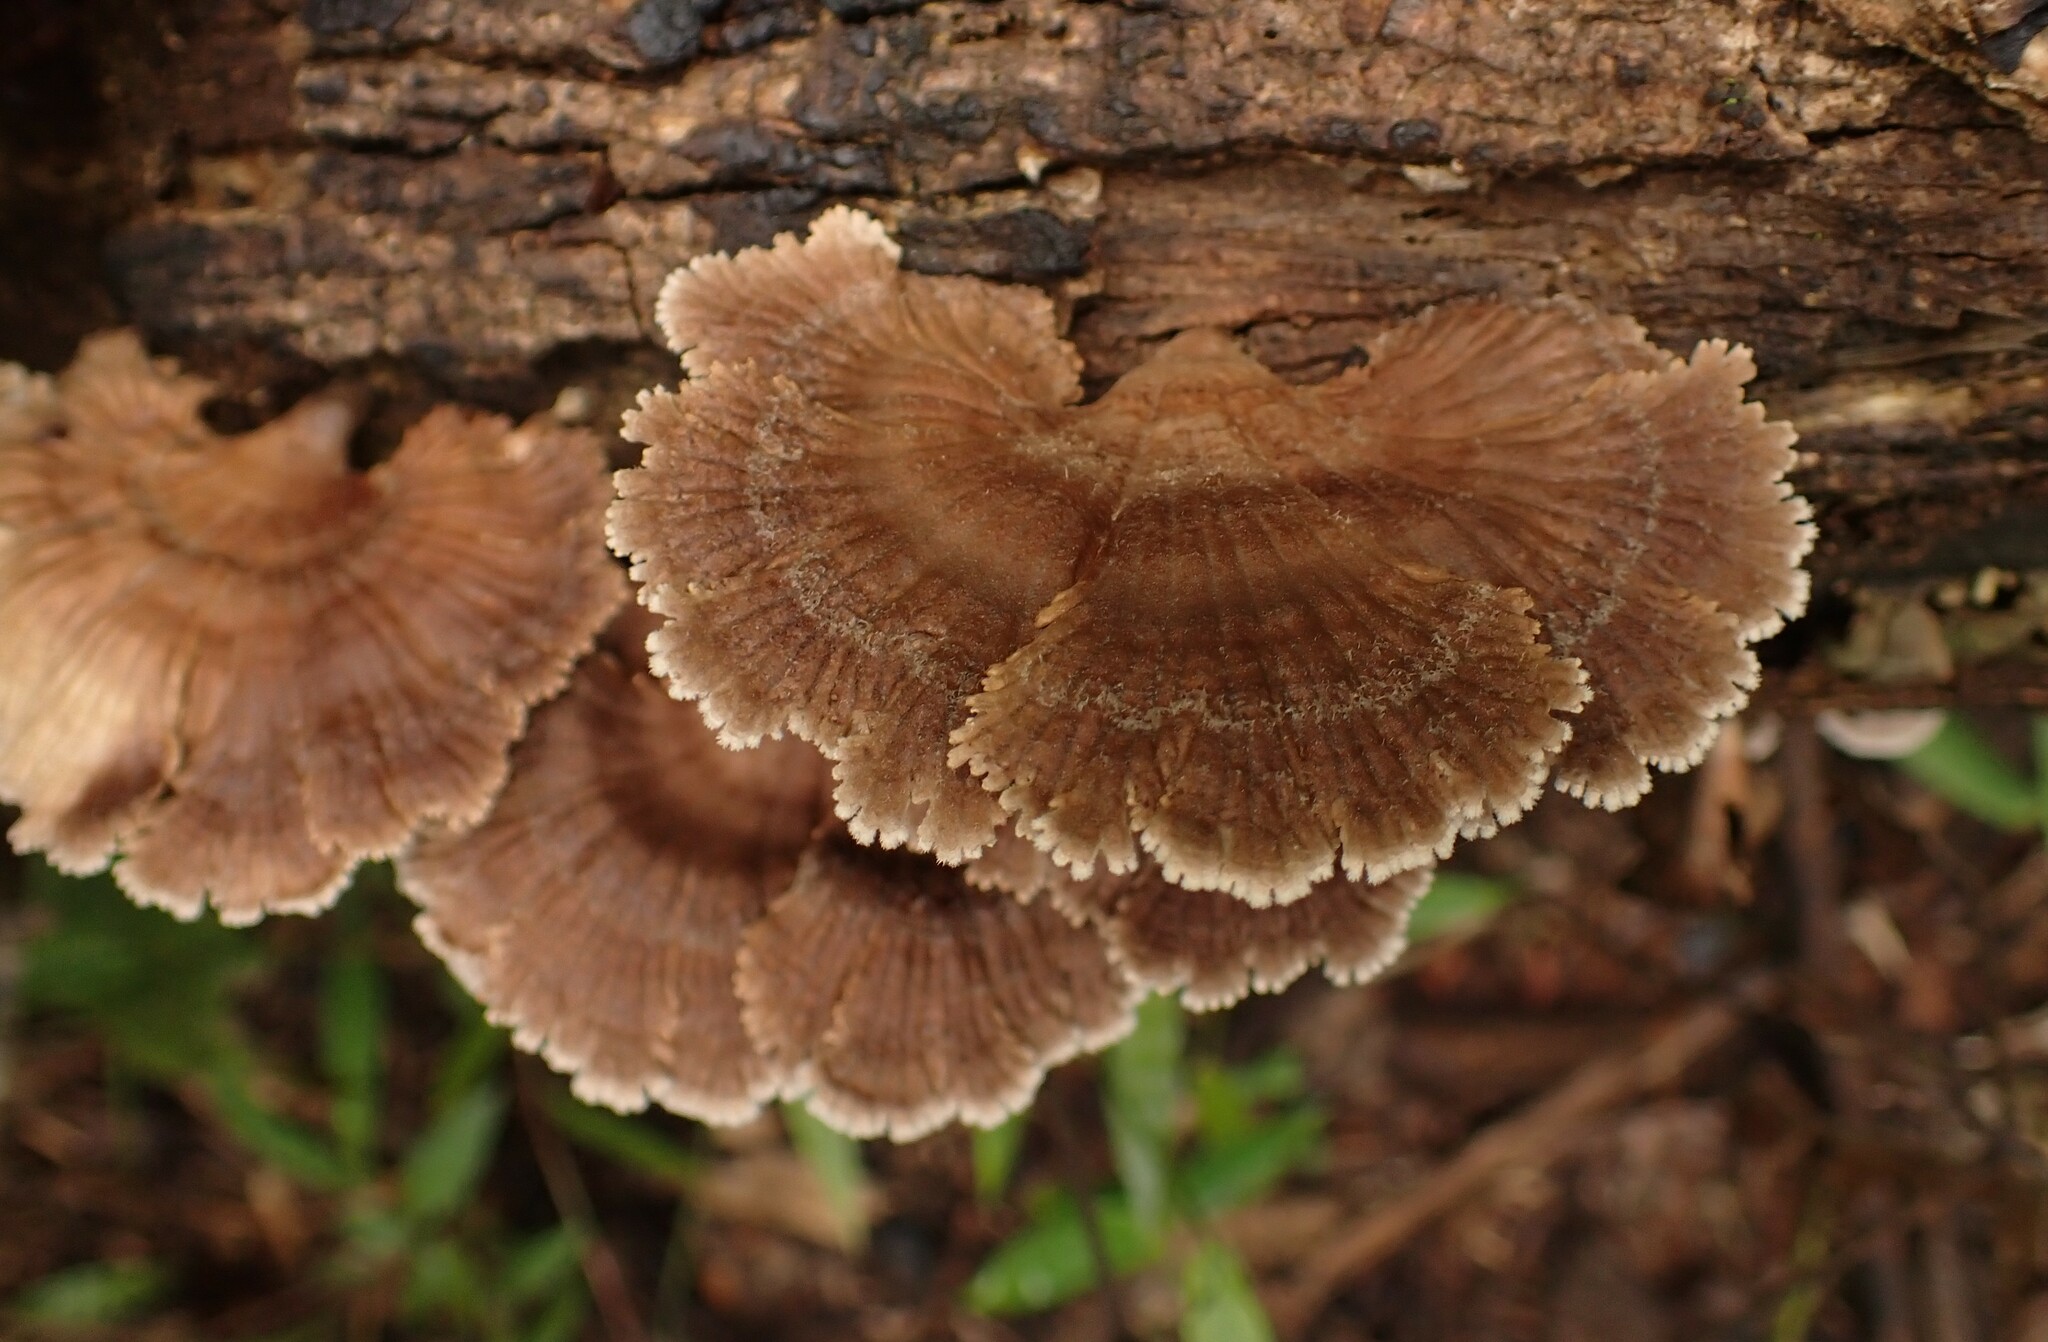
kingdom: Fungi
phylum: Basidiomycota
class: Agaricomycetes
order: Agaricales
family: Schizophyllaceae
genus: Schizophyllum
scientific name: Schizophyllum commune
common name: Common porecrust
